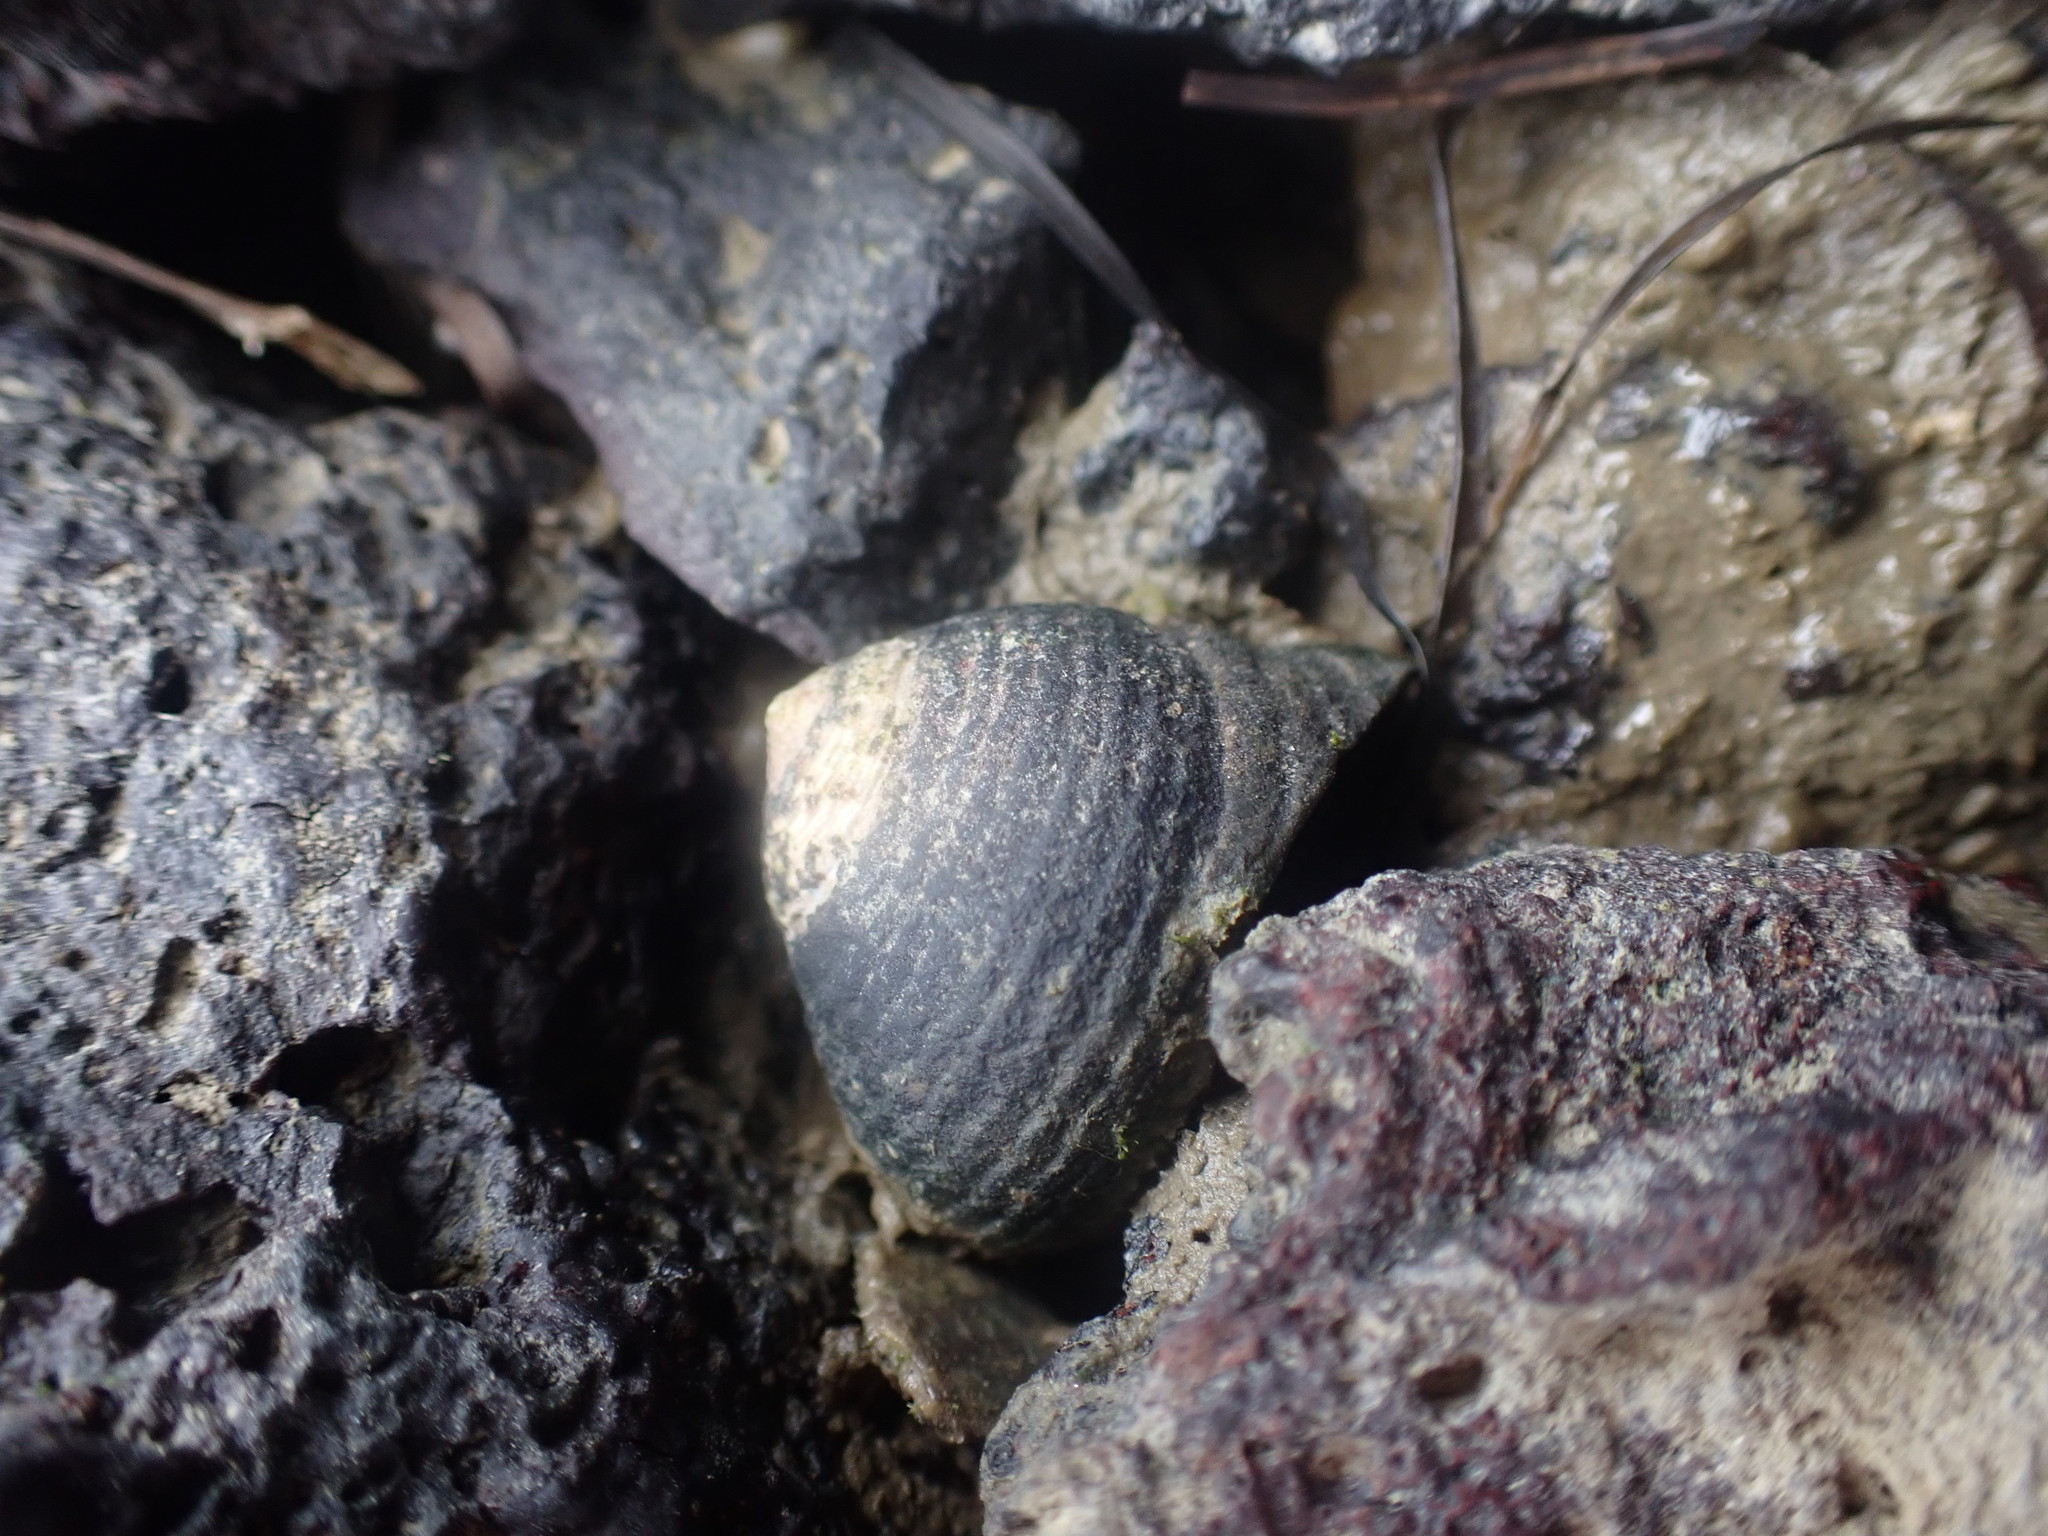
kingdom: Animalia
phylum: Mollusca
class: Gastropoda
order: Trochida
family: Trochidae
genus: Diloma
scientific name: Diloma zelandicum
